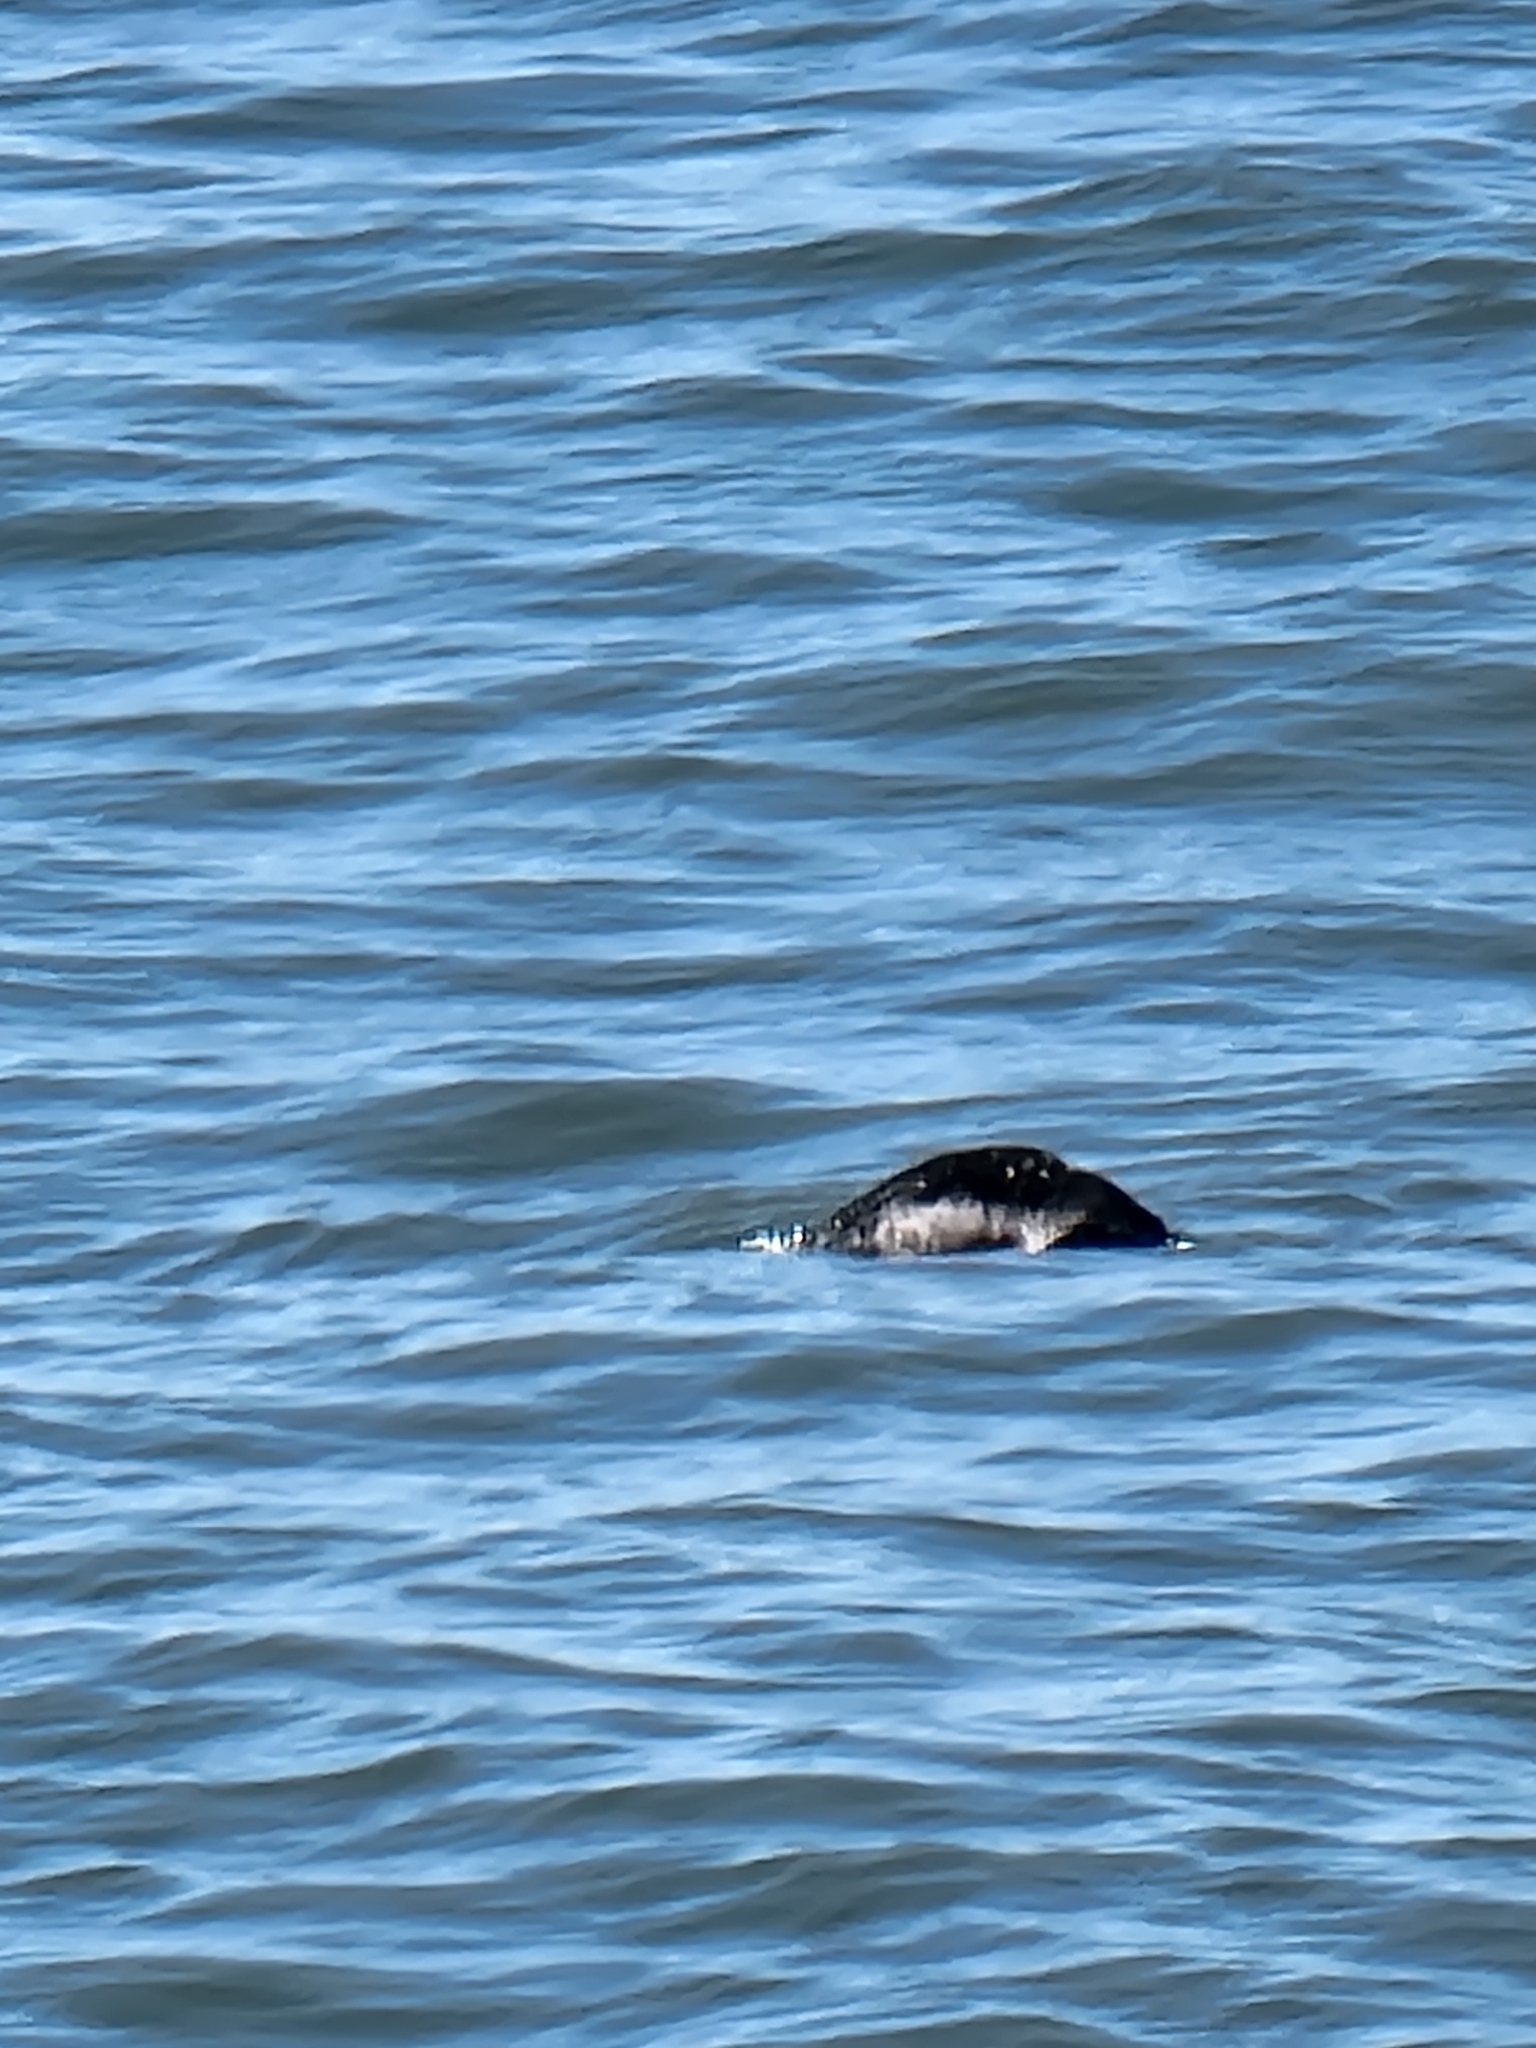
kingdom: Animalia
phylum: Chordata
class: Mammalia
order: Carnivora
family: Mustelidae
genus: Enhydra
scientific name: Enhydra lutris
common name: Sea otter
